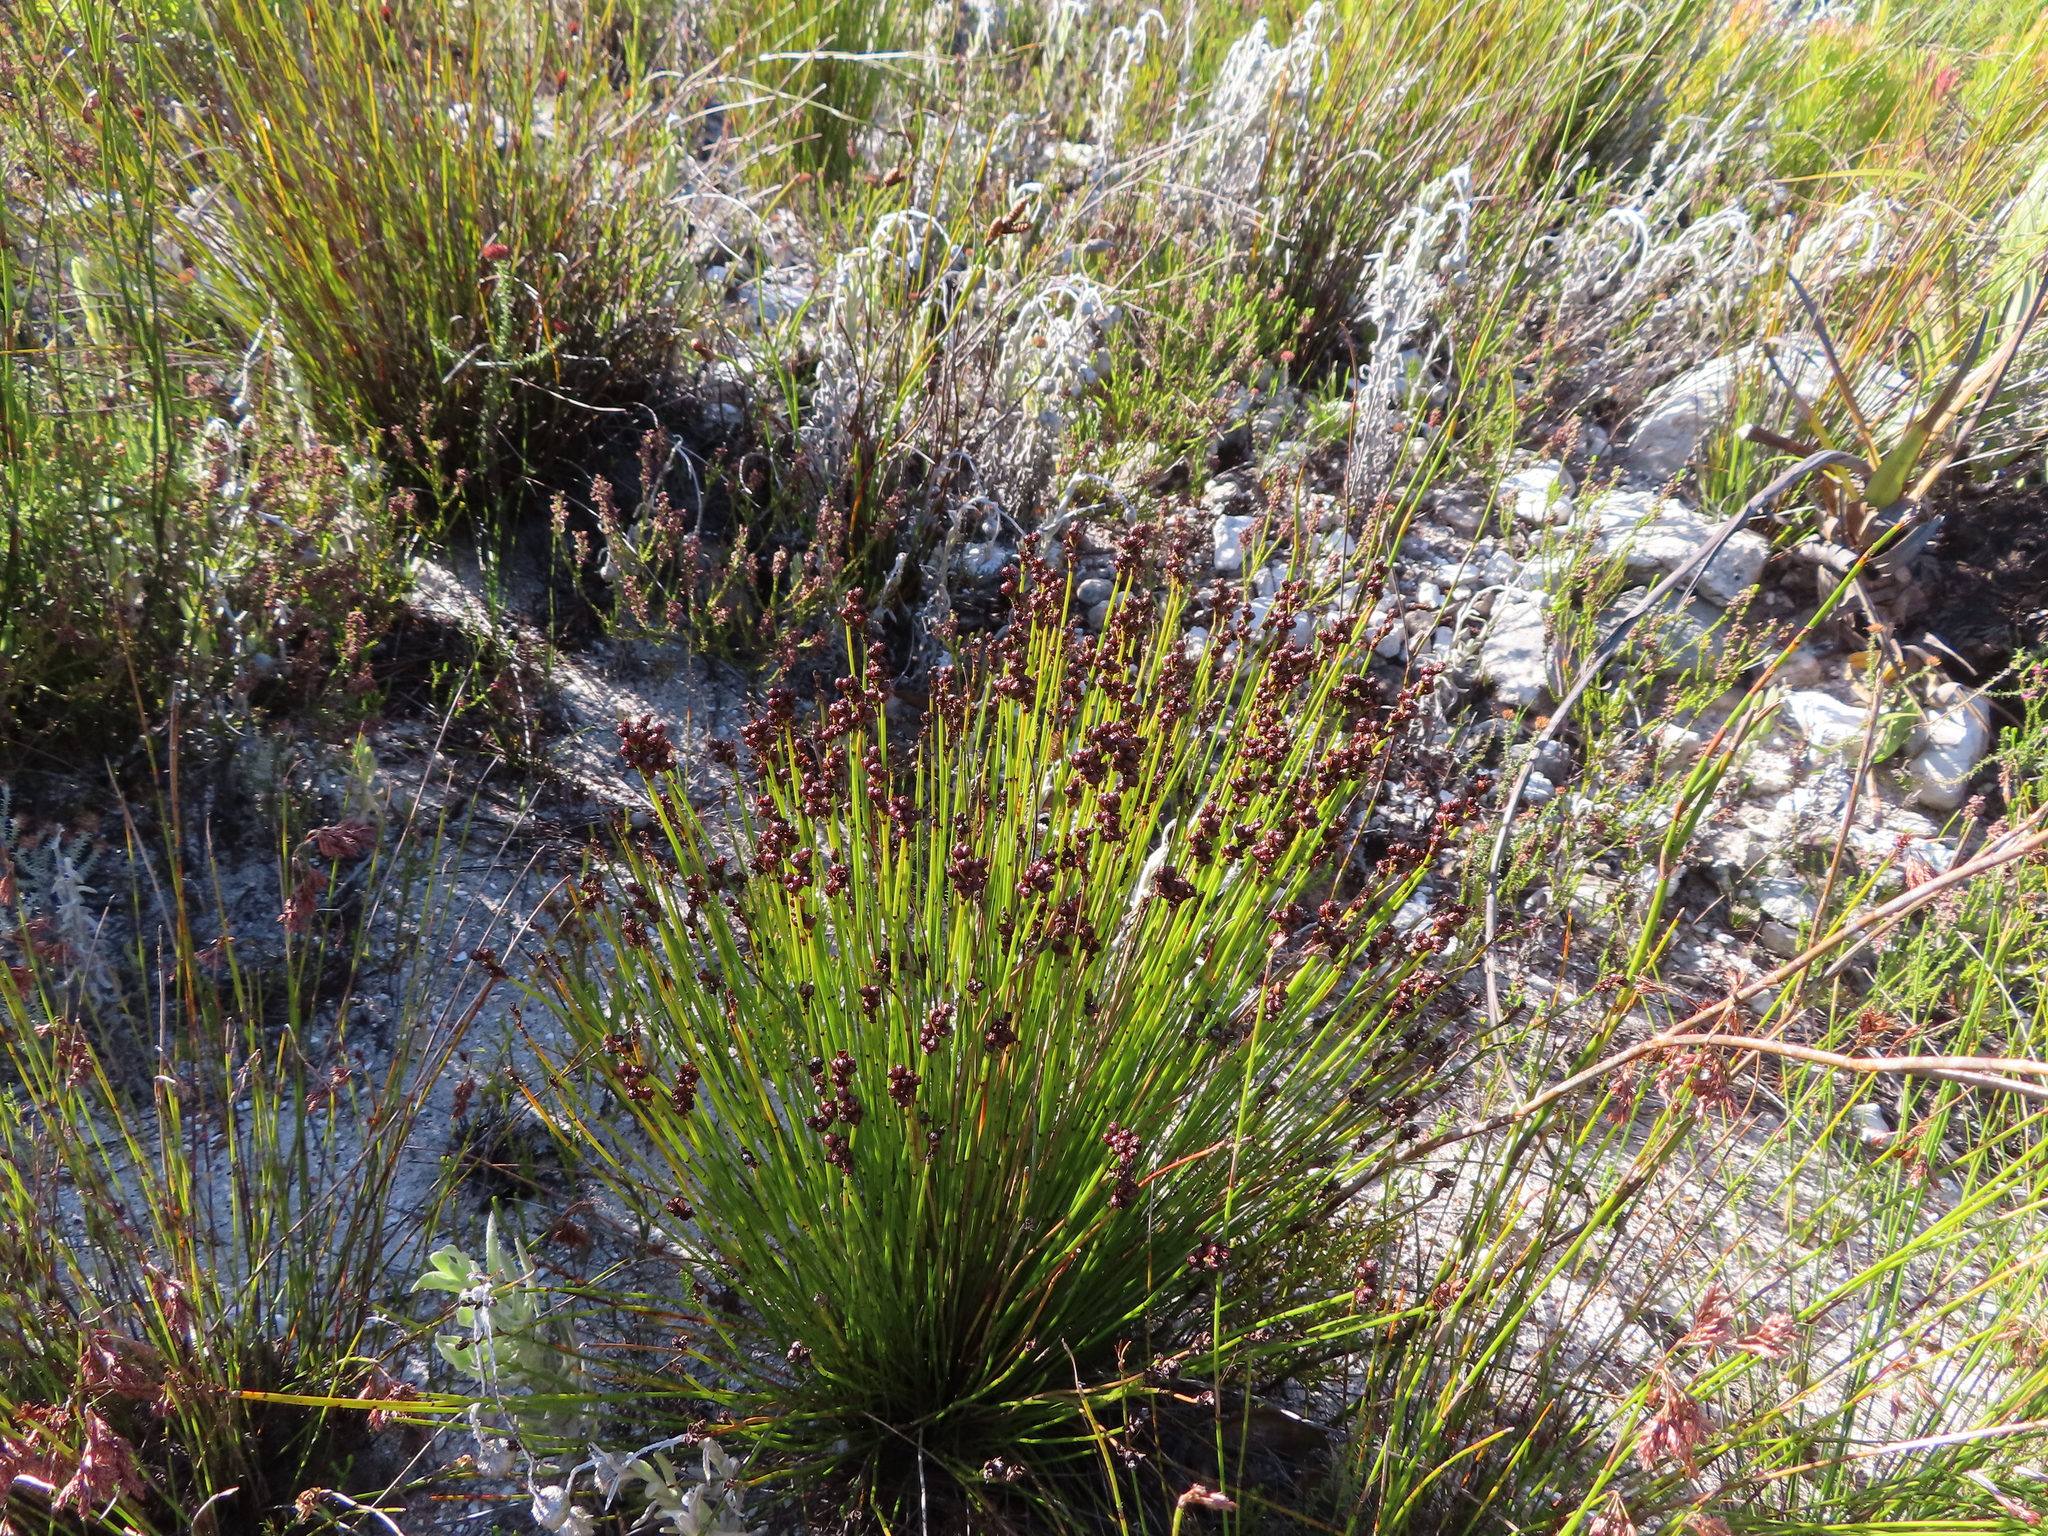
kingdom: Plantae
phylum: Tracheophyta
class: Liliopsida
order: Poales
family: Restionaceae
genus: Elegia
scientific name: Elegia ebracteata
